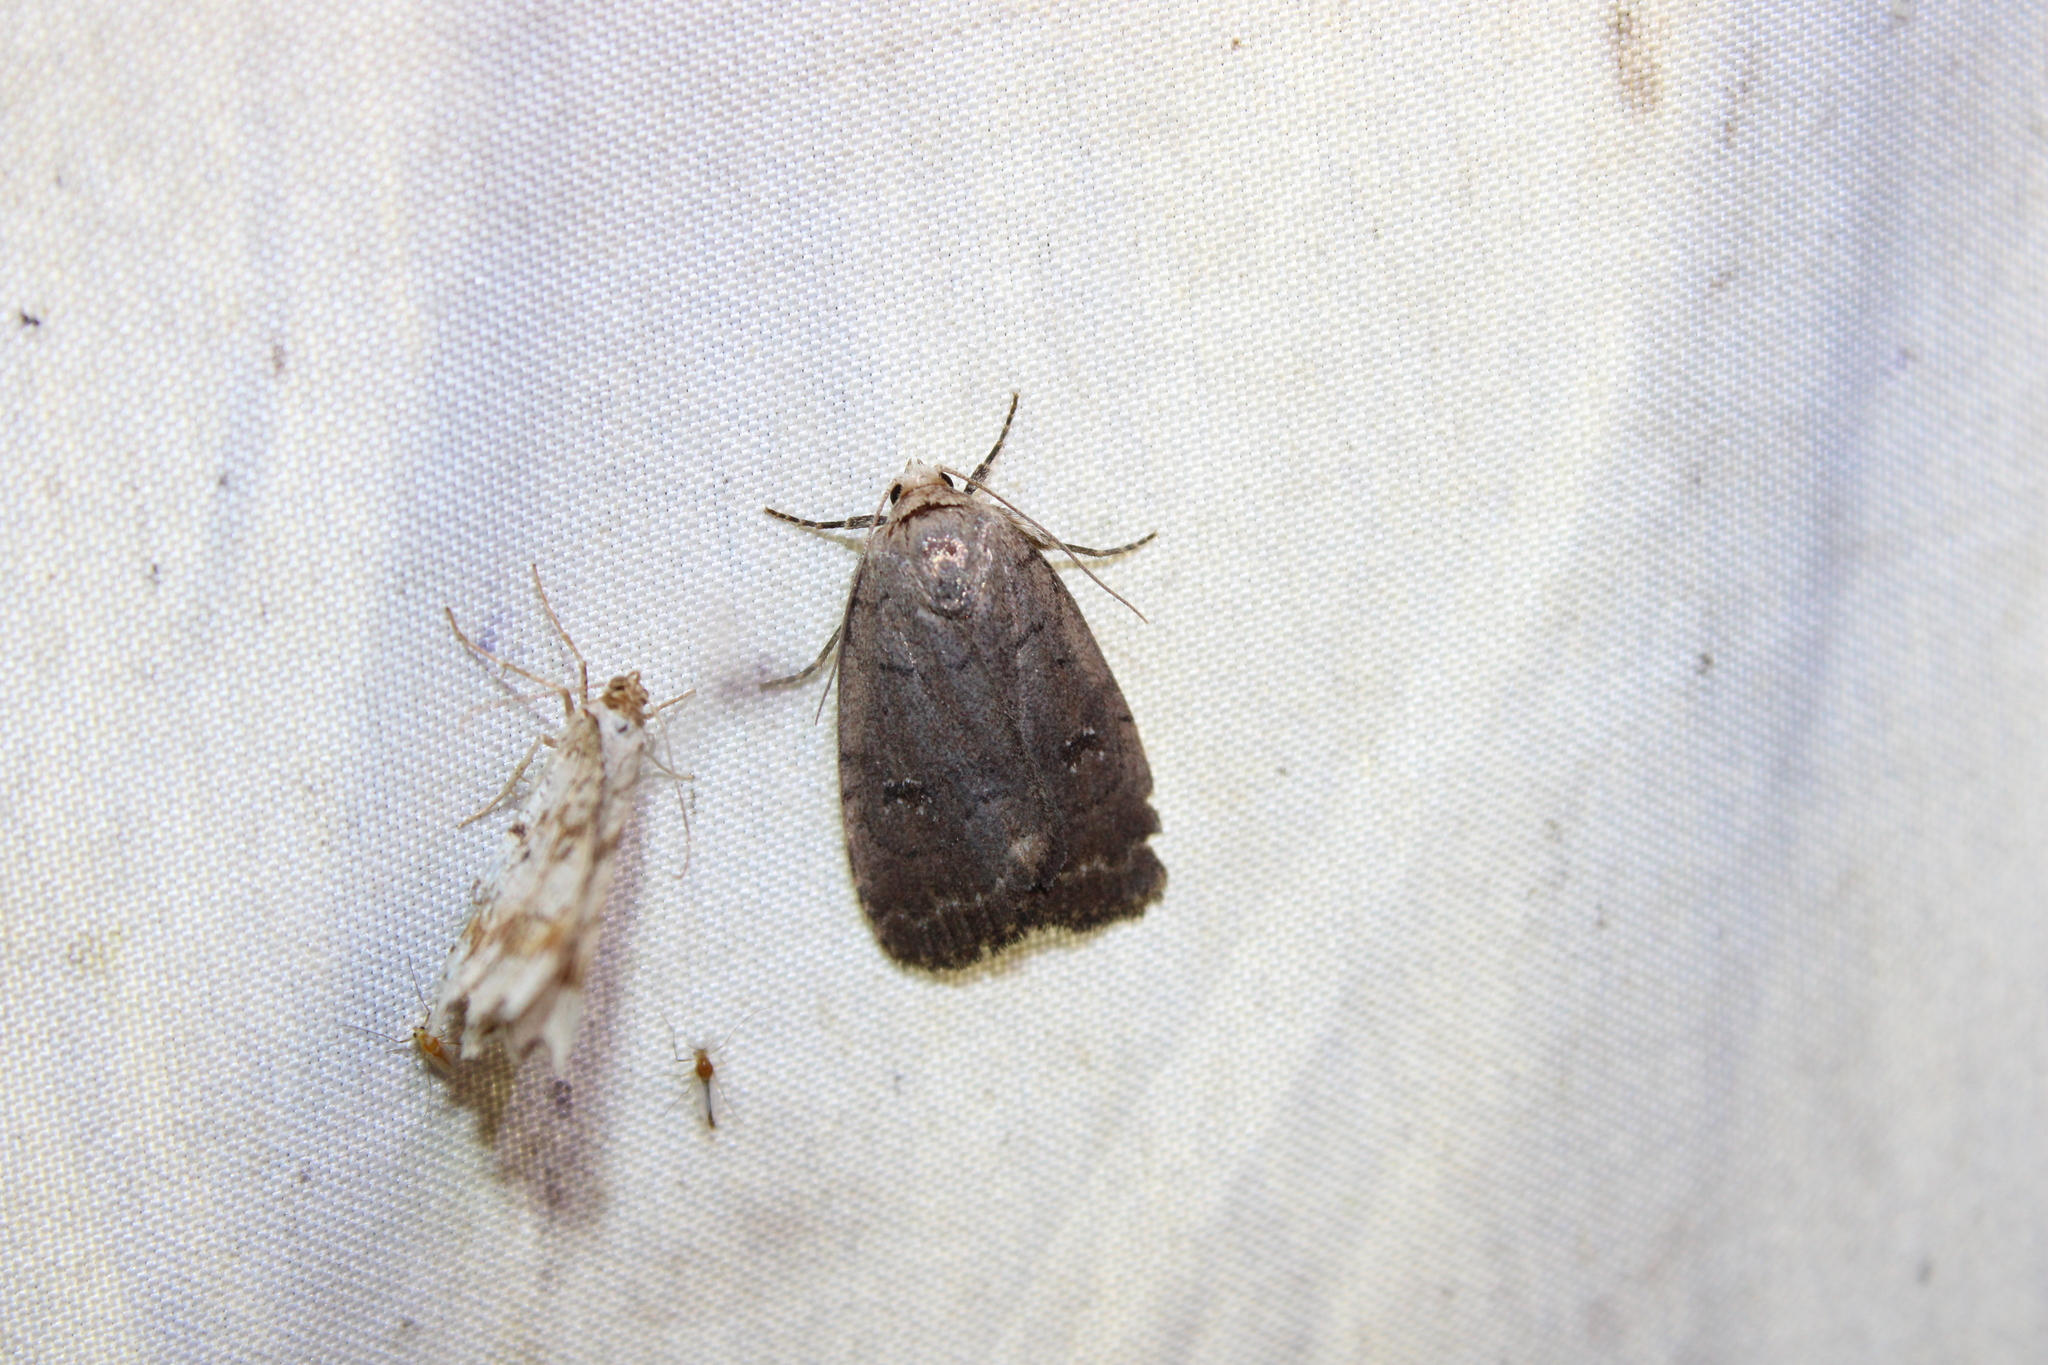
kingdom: Animalia
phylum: Arthropoda
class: Insecta
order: Lepidoptera
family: Noctuidae
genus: Athetis
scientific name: Athetis tarda
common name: Slowpoke moth
